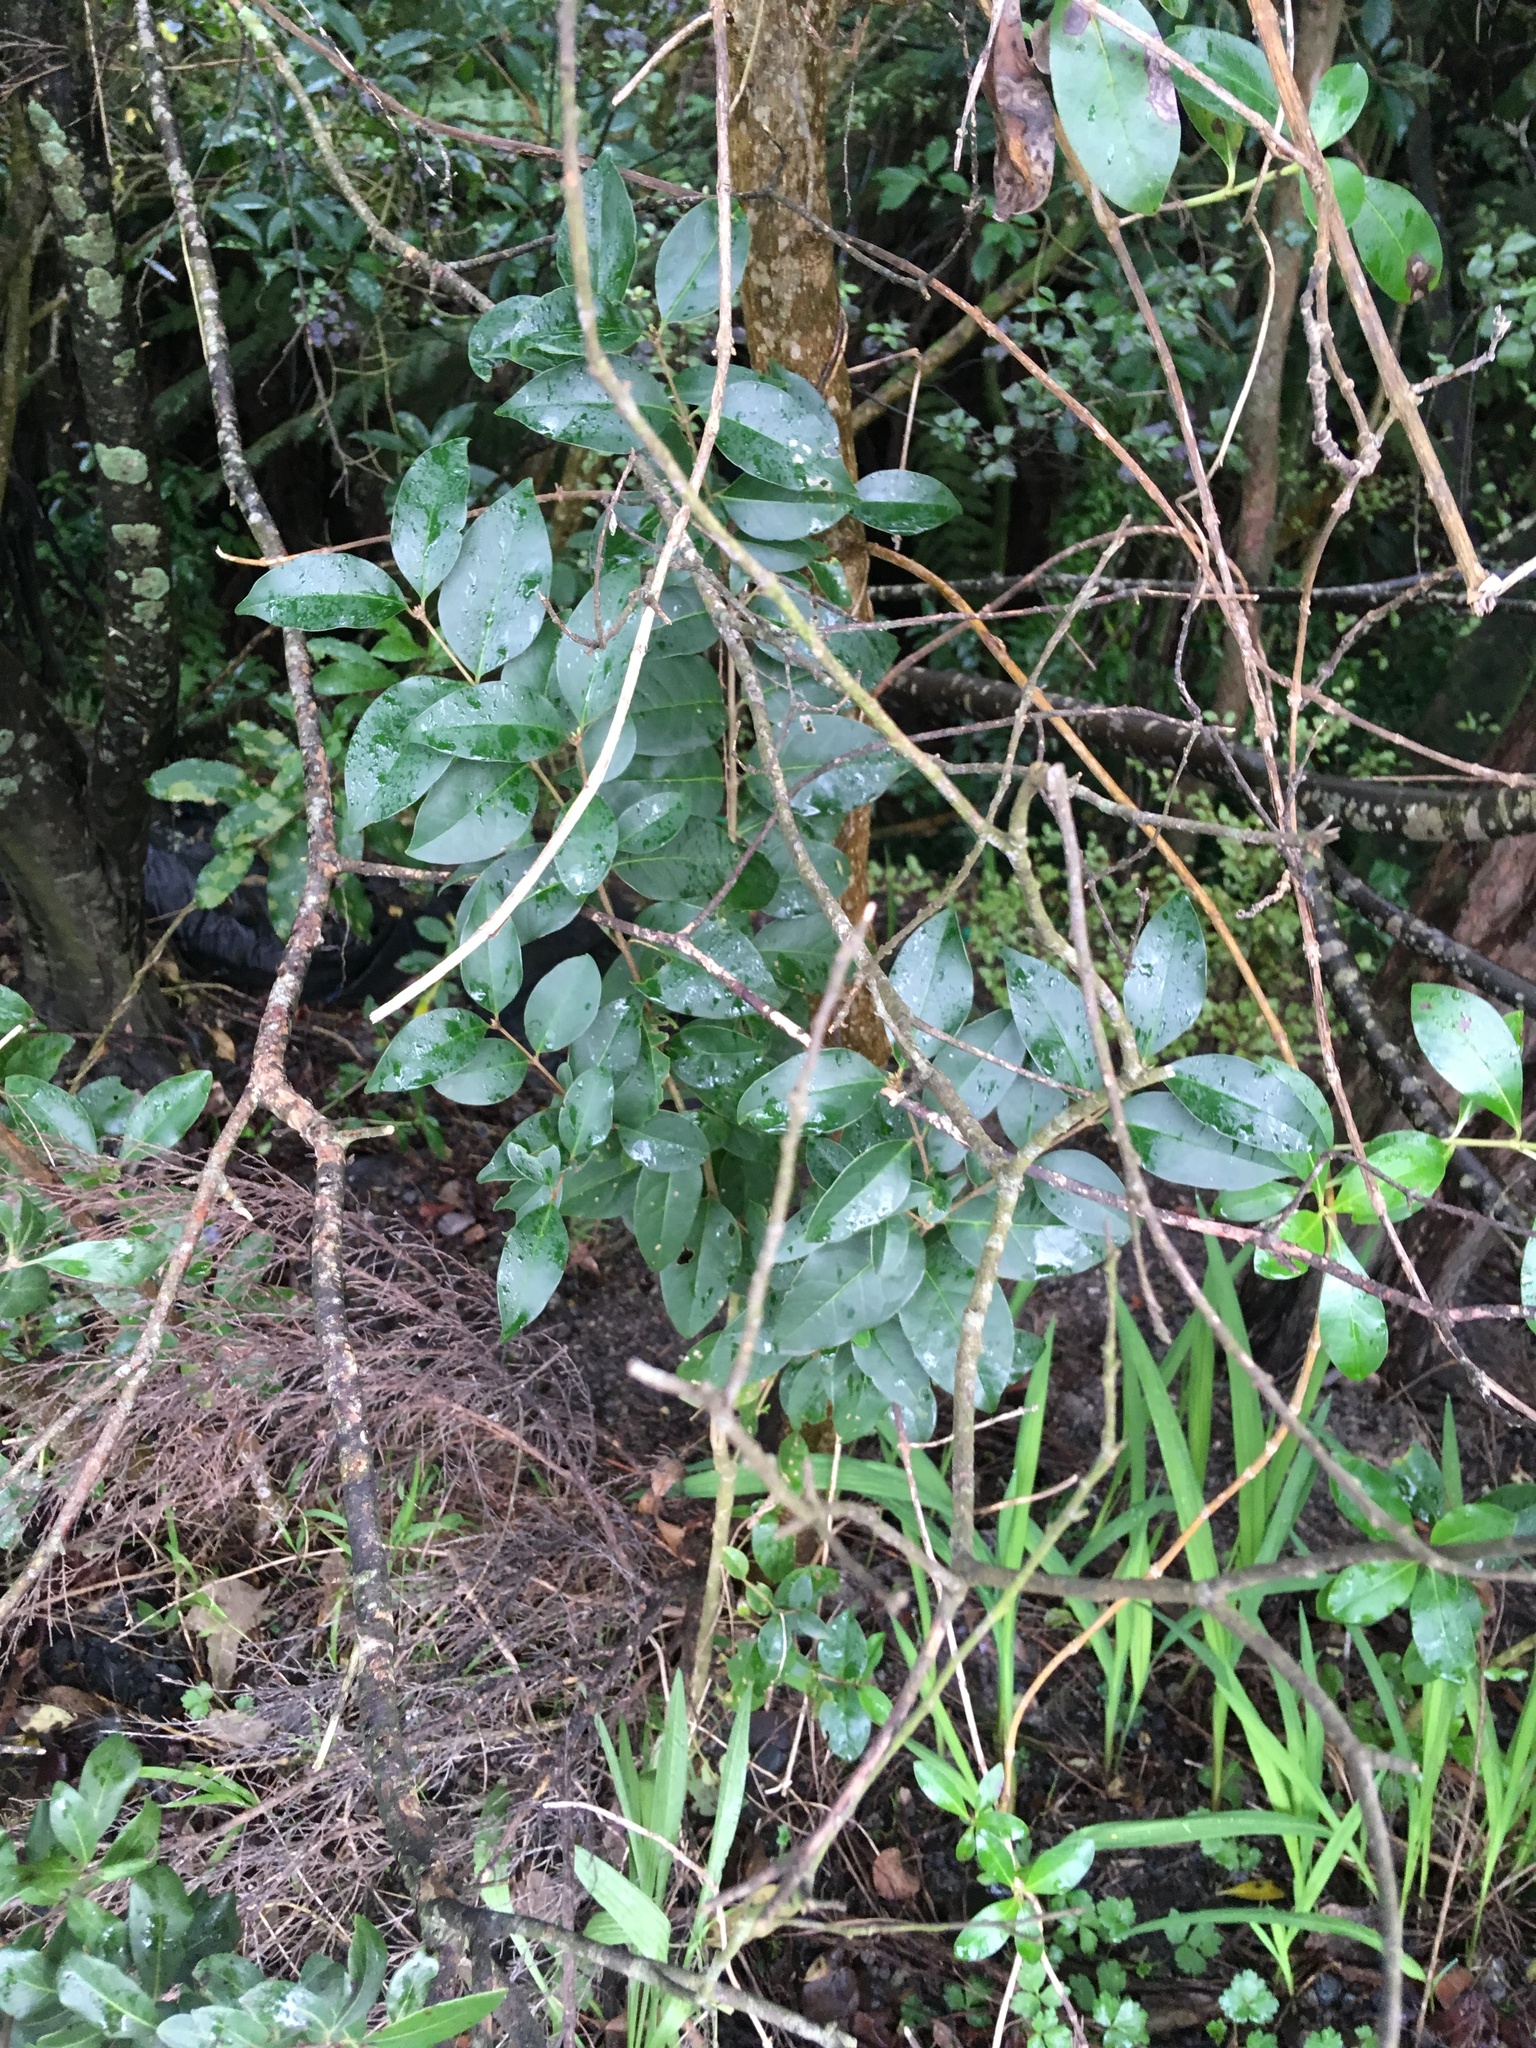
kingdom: Plantae
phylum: Tracheophyta
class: Magnoliopsida
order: Lamiales
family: Oleaceae
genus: Ligustrum
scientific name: Ligustrum lucidum
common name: Glossy privet
